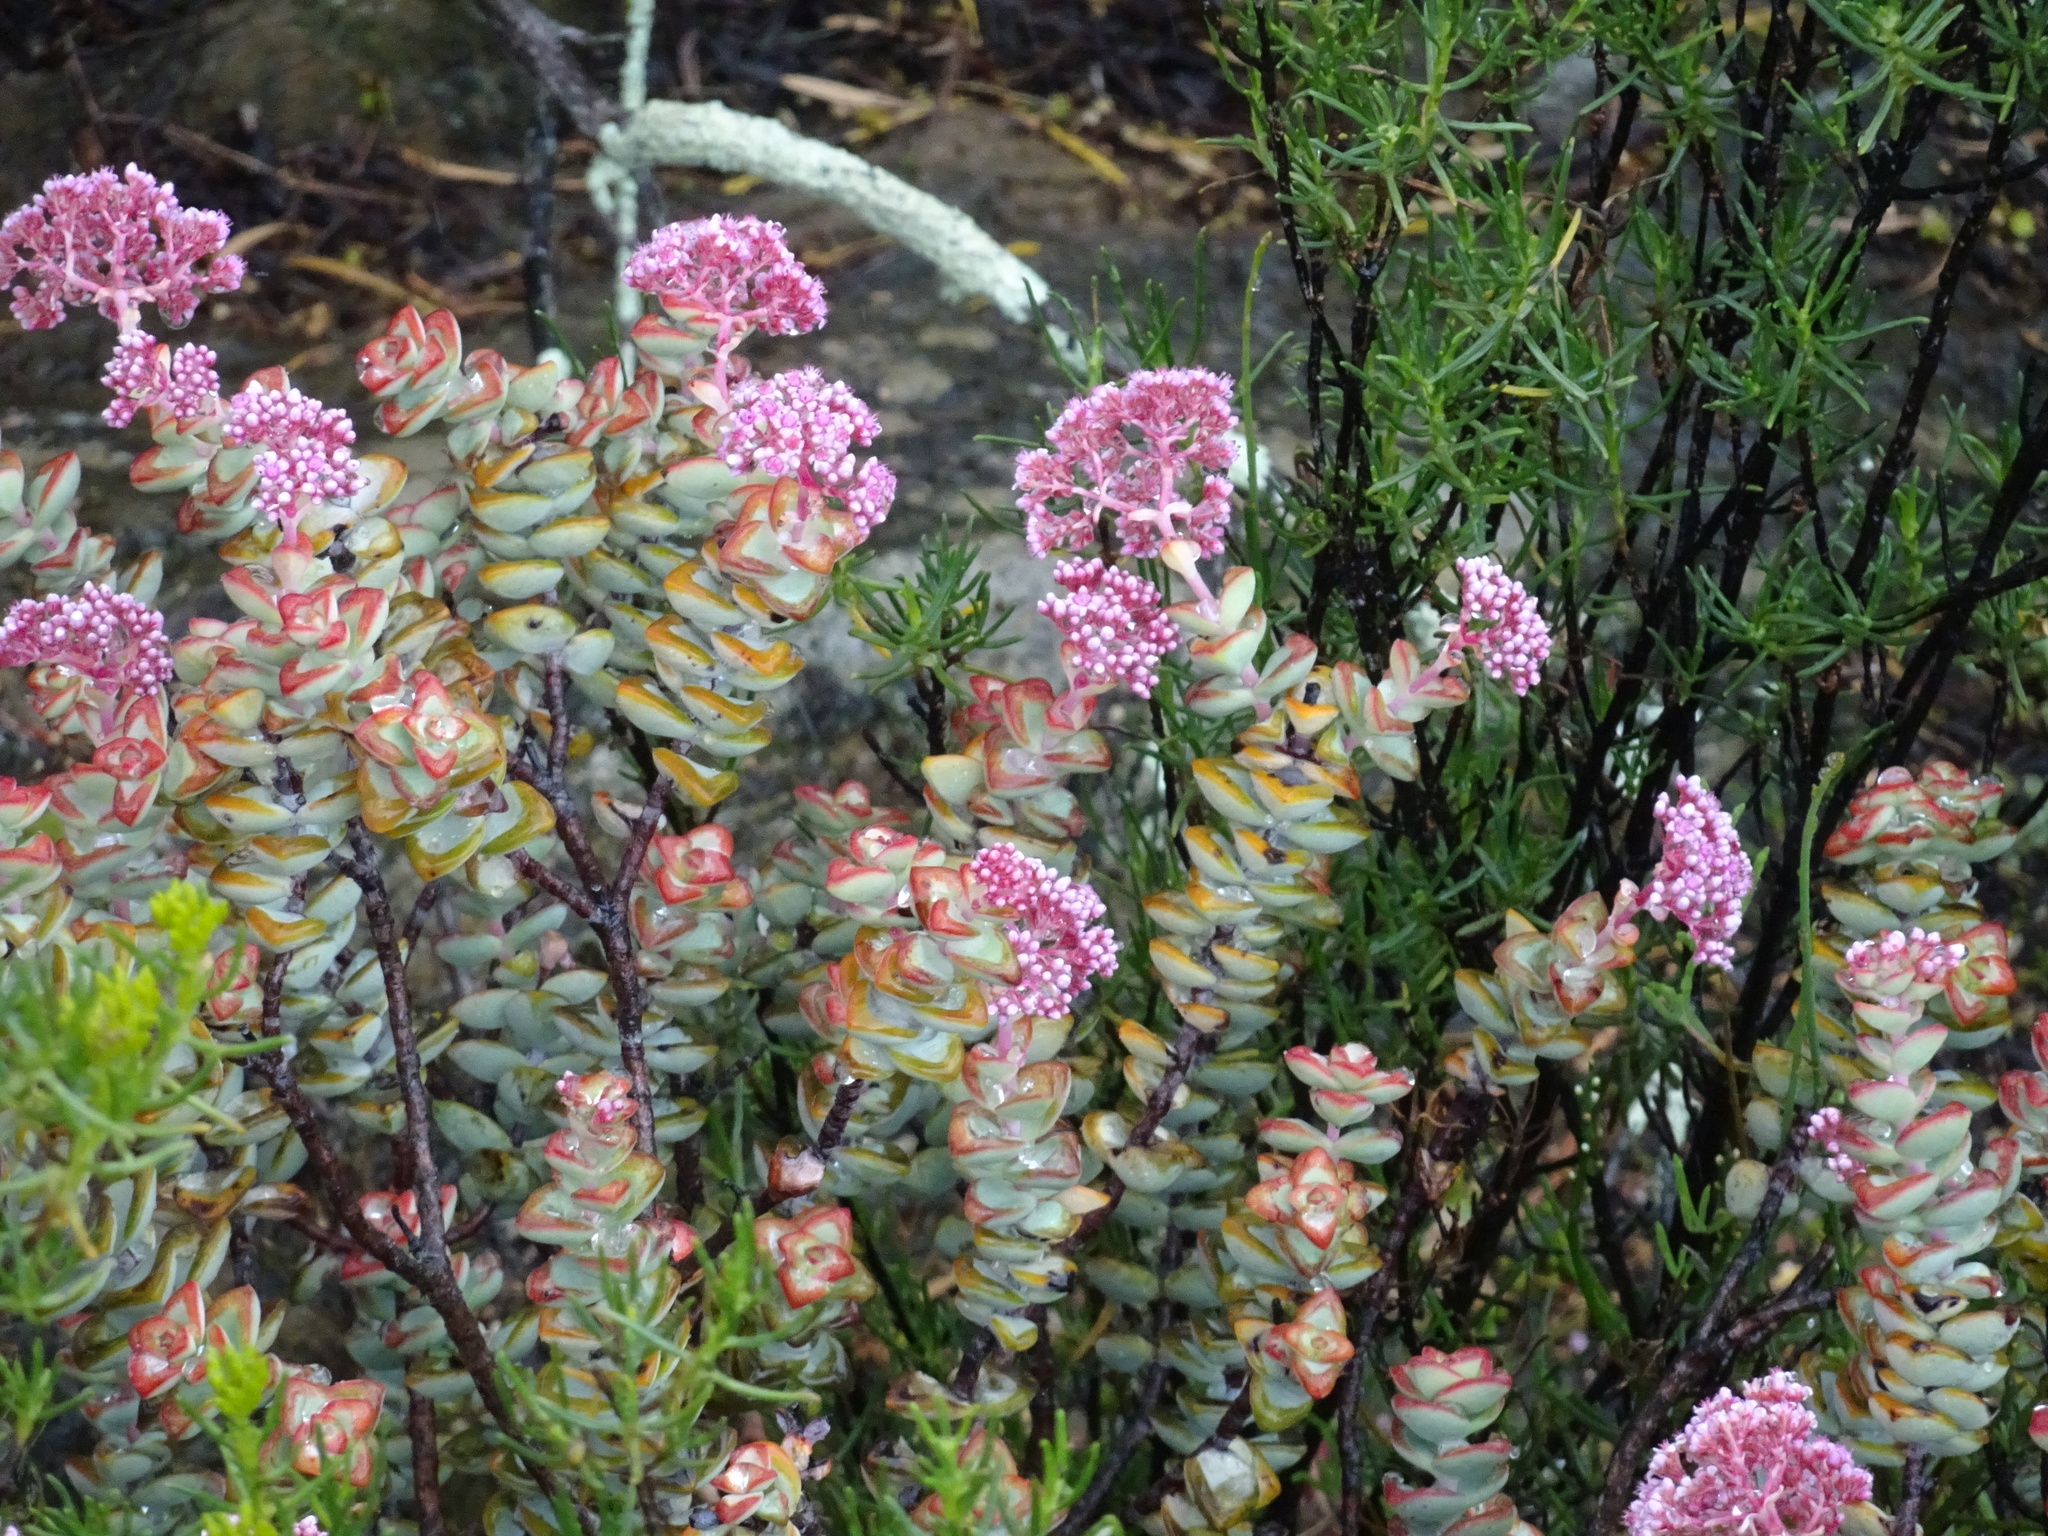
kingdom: Plantae
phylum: Tracheophyta
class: Magnoliopsida
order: Saxifragales
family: Crassulaceae
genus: Crassula
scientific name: Crassula rupestris
